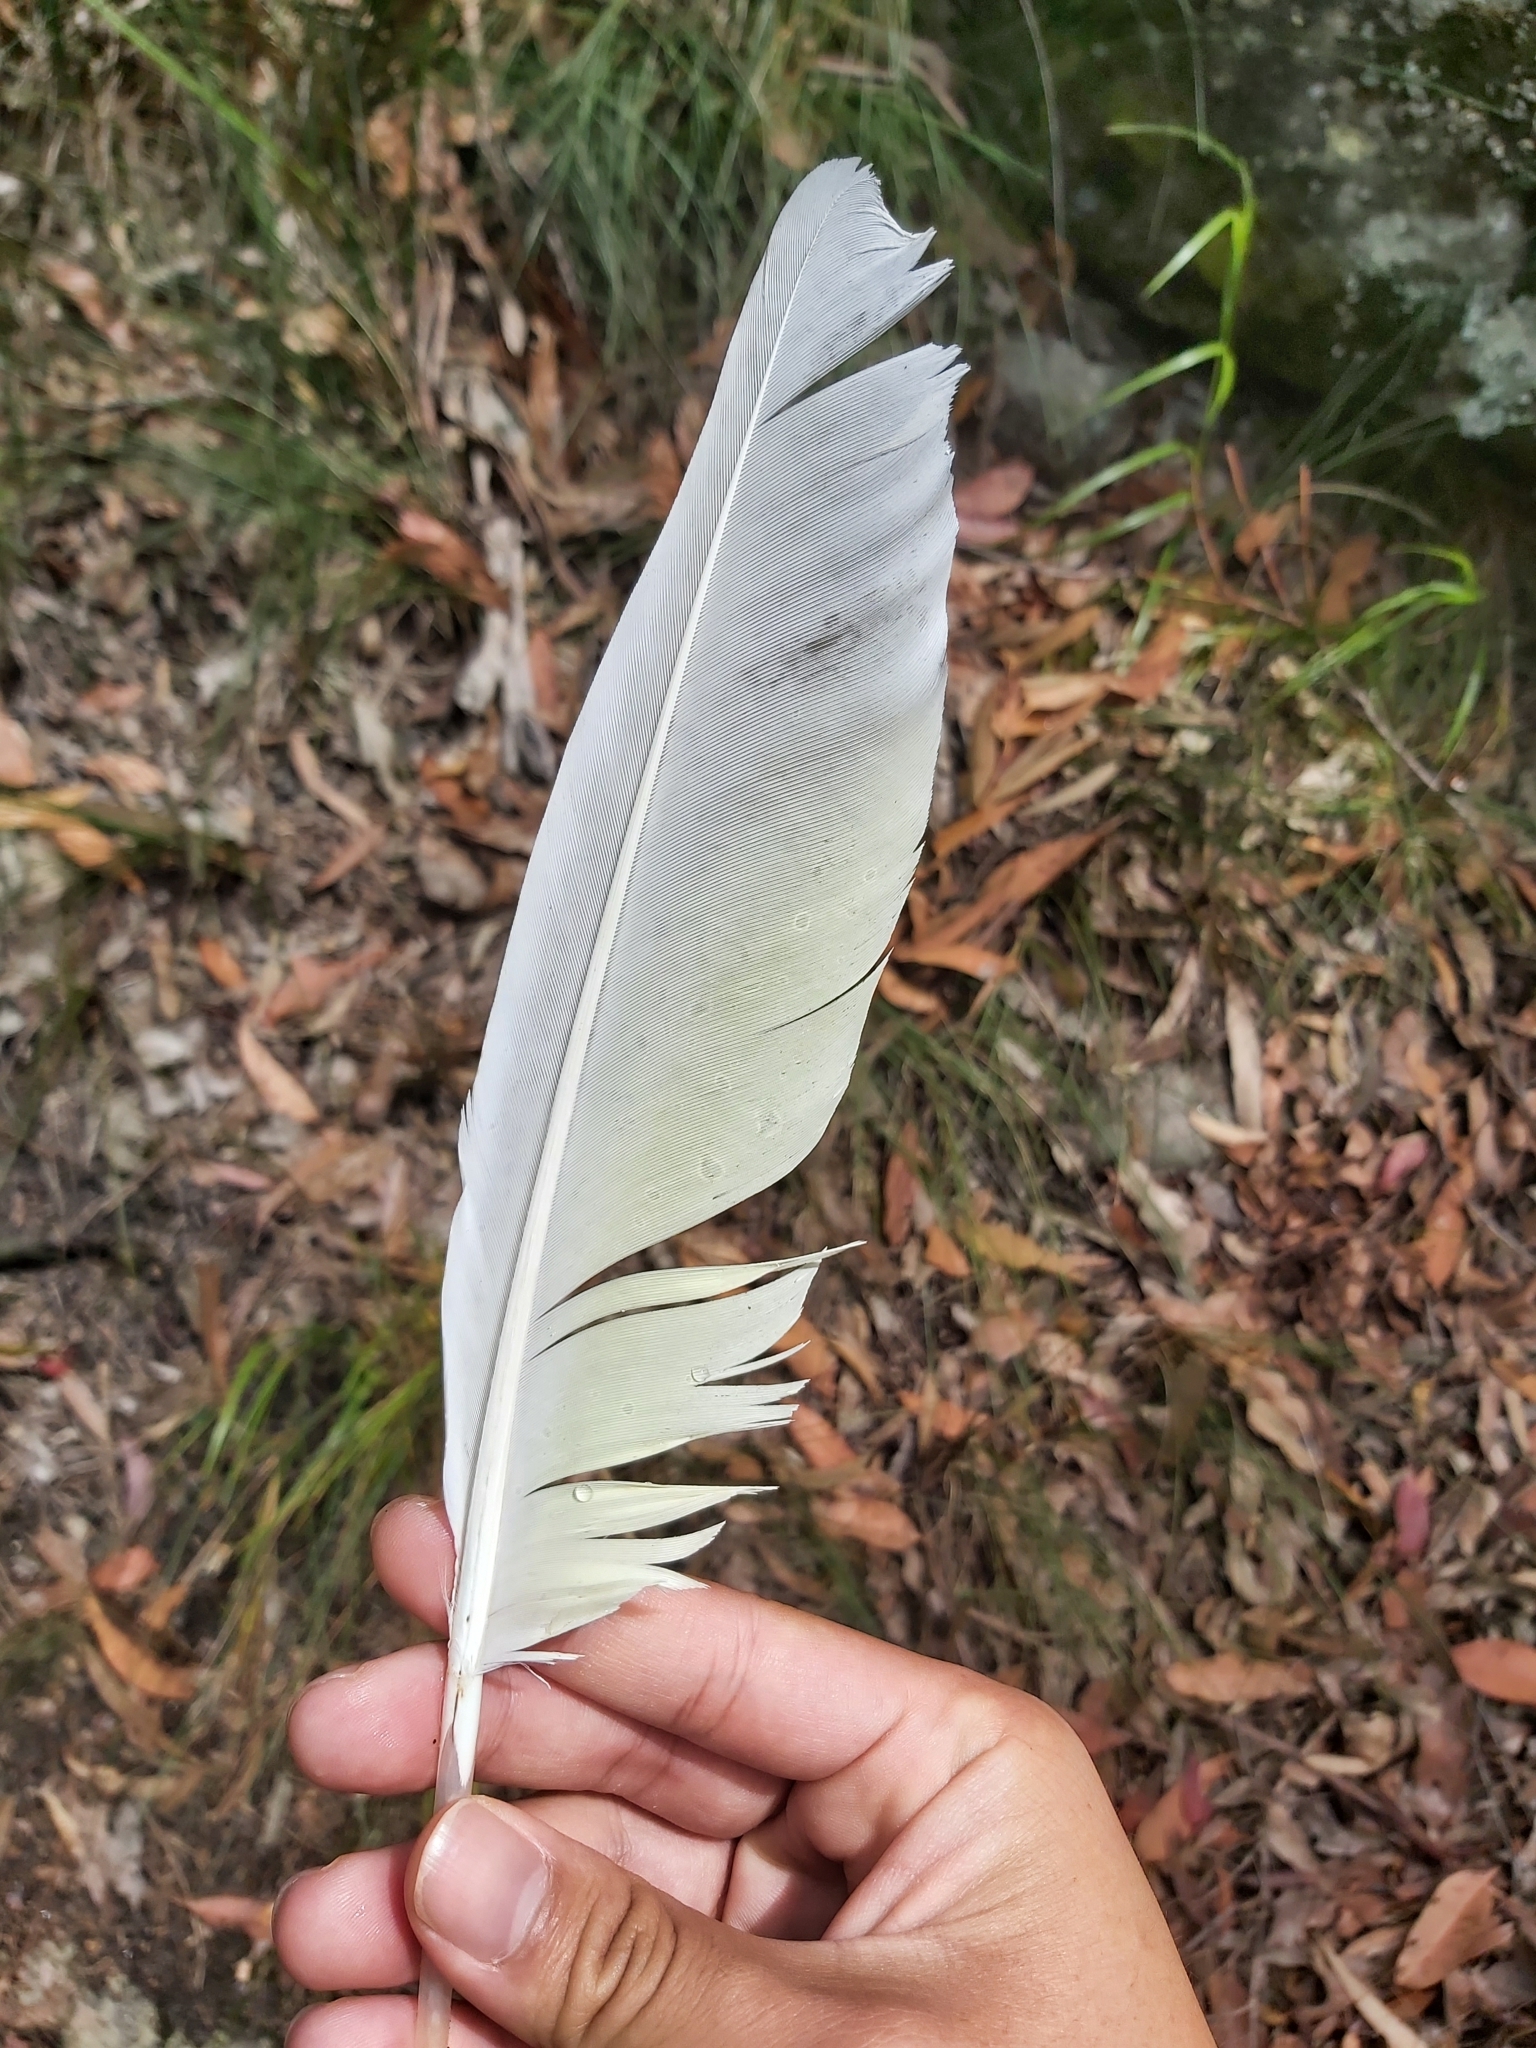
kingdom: Animalia
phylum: Chordata
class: Aves
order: Psittaciformes
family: Psittacidae
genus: Cacatua
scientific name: Cacatua galerita
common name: Sulphur-crested cockatoo
